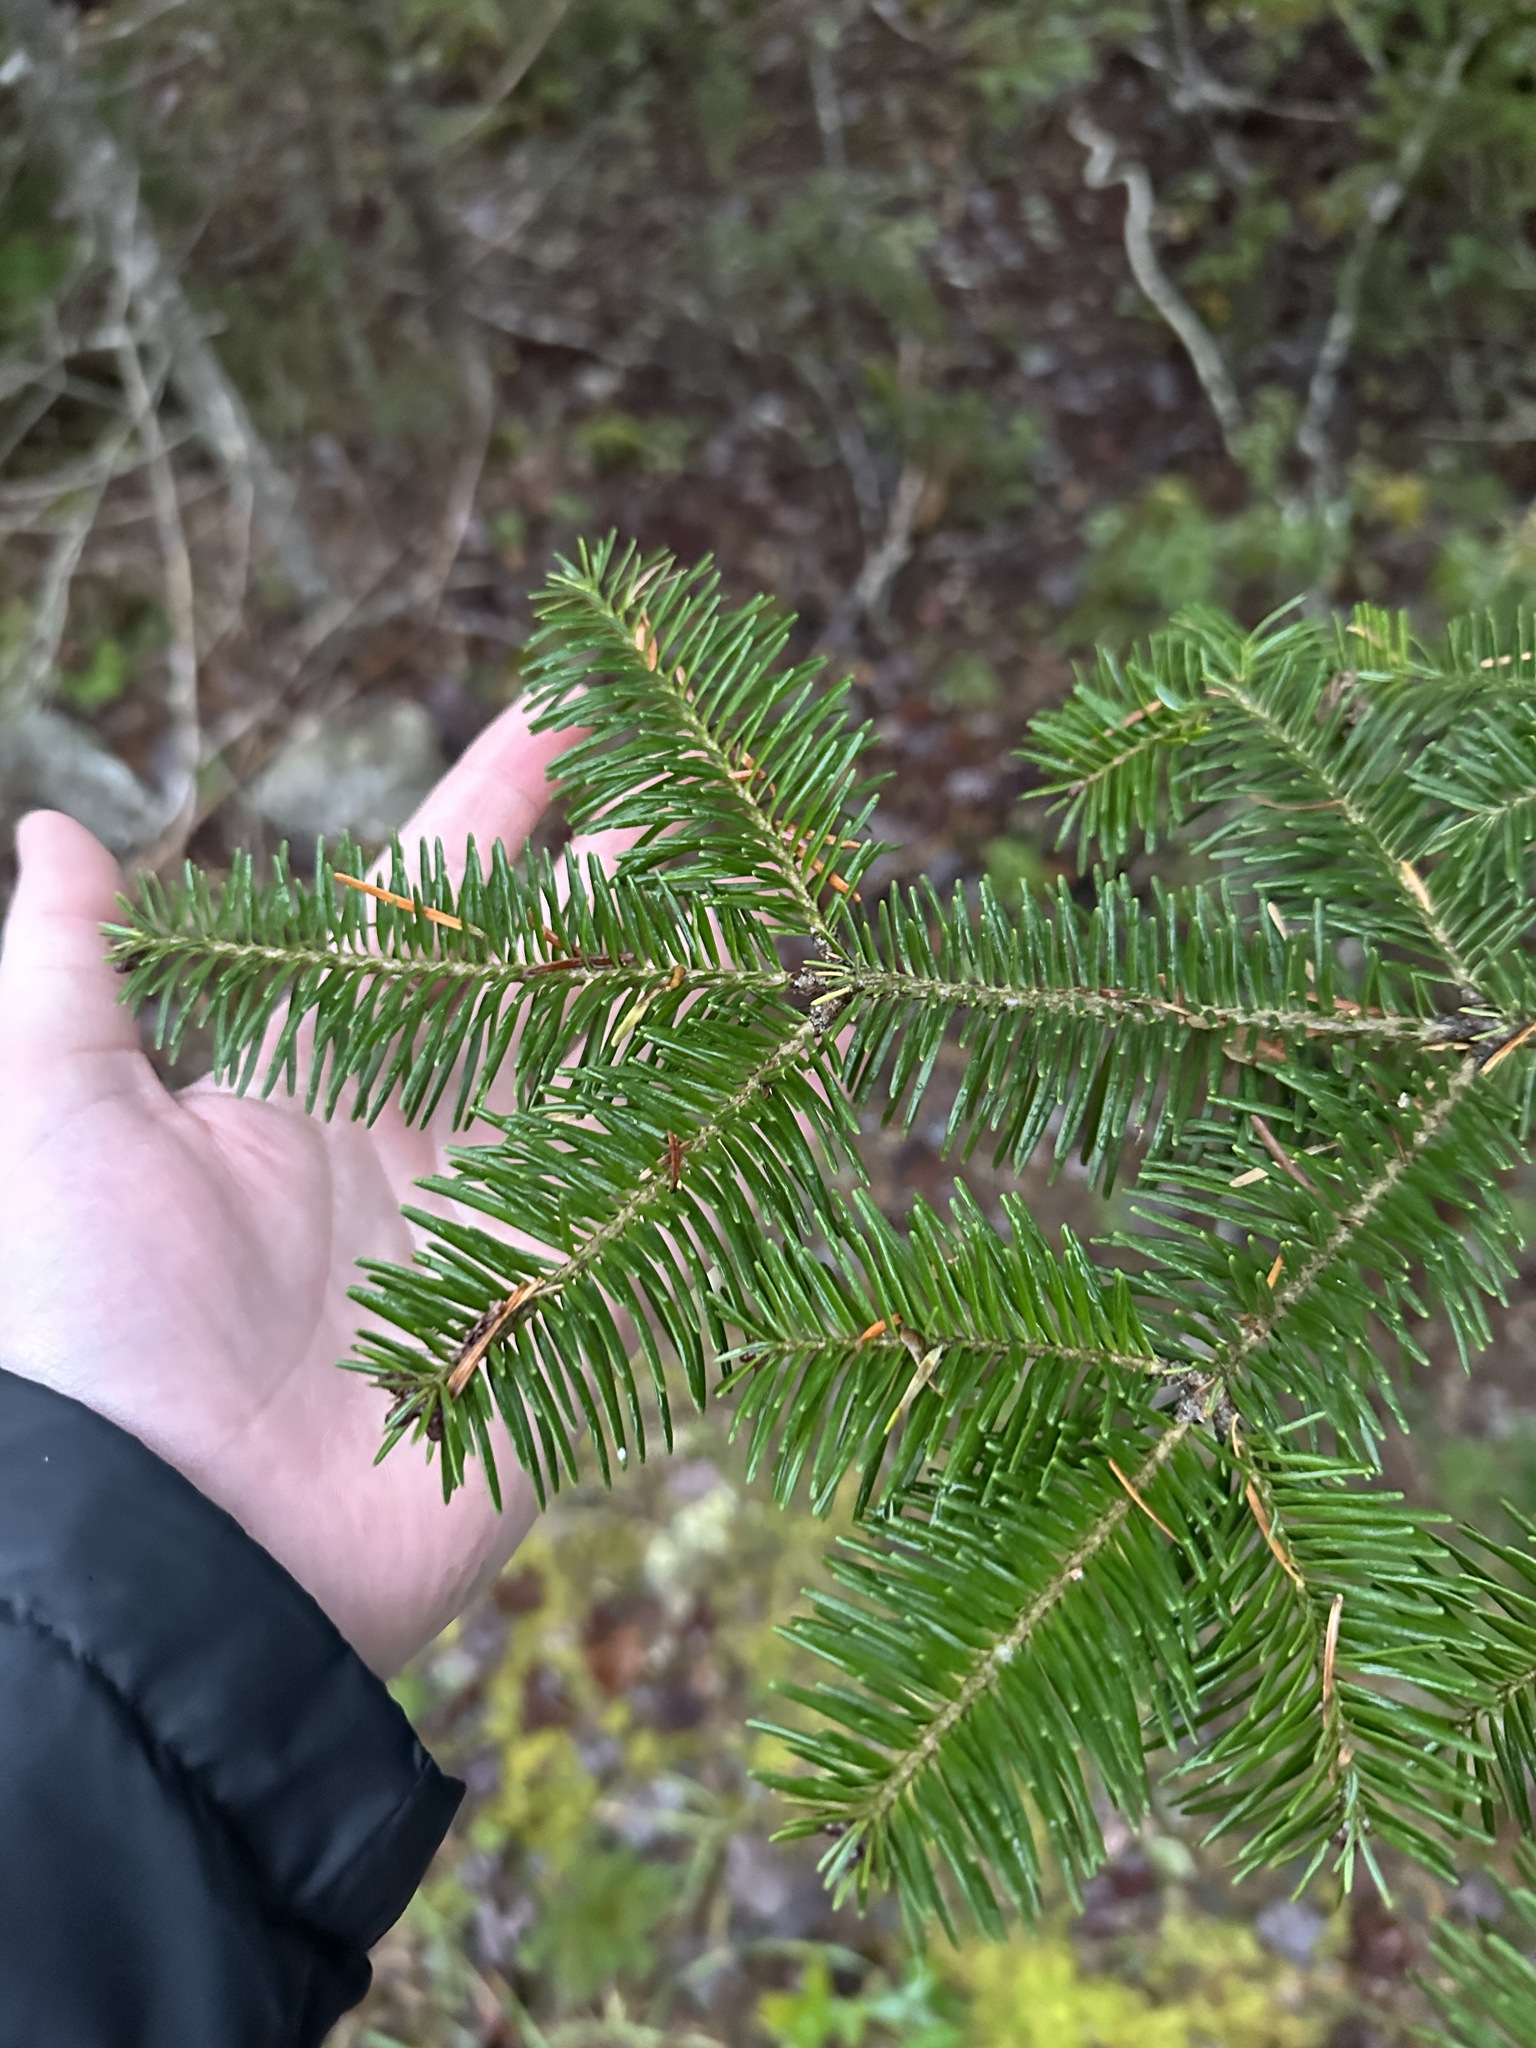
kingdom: Plantae
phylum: Tracheophyta
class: Pinopsida
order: Pinales
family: Pinaceae
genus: Abies
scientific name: Abies balsamea
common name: Balsam fir
